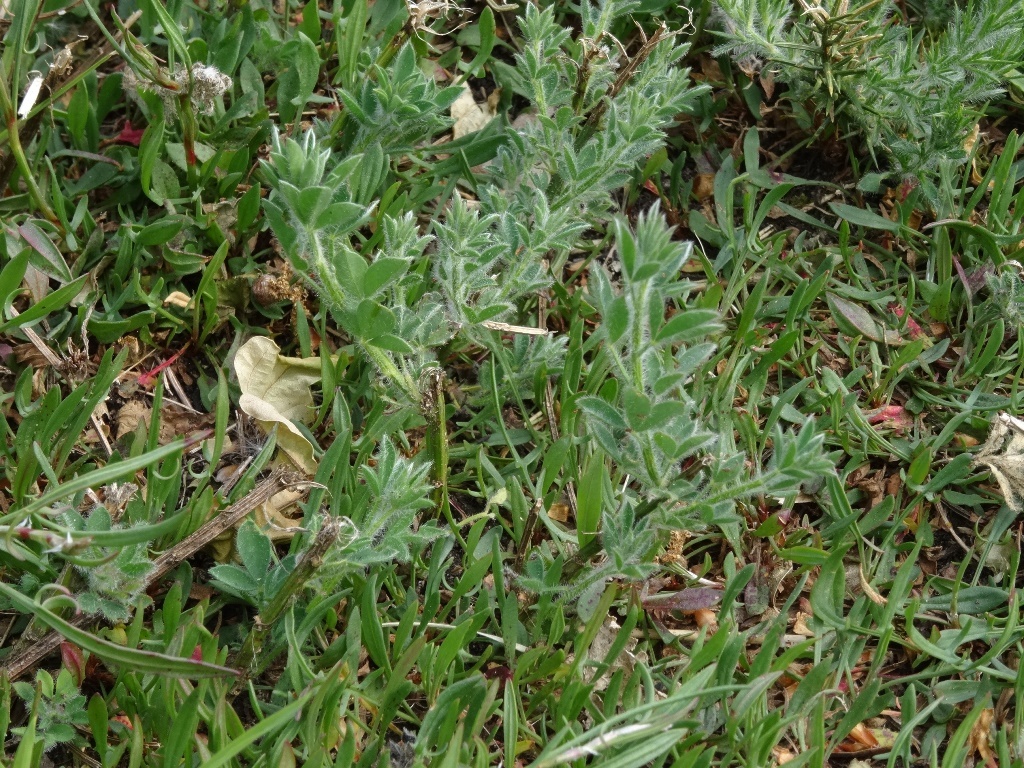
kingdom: Plantae
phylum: Tracheophyta
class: Magnoliopsida
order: Fabales
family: Fabaceae
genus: Cytisus
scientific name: Cytisus scoparius
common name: Scotch broom
